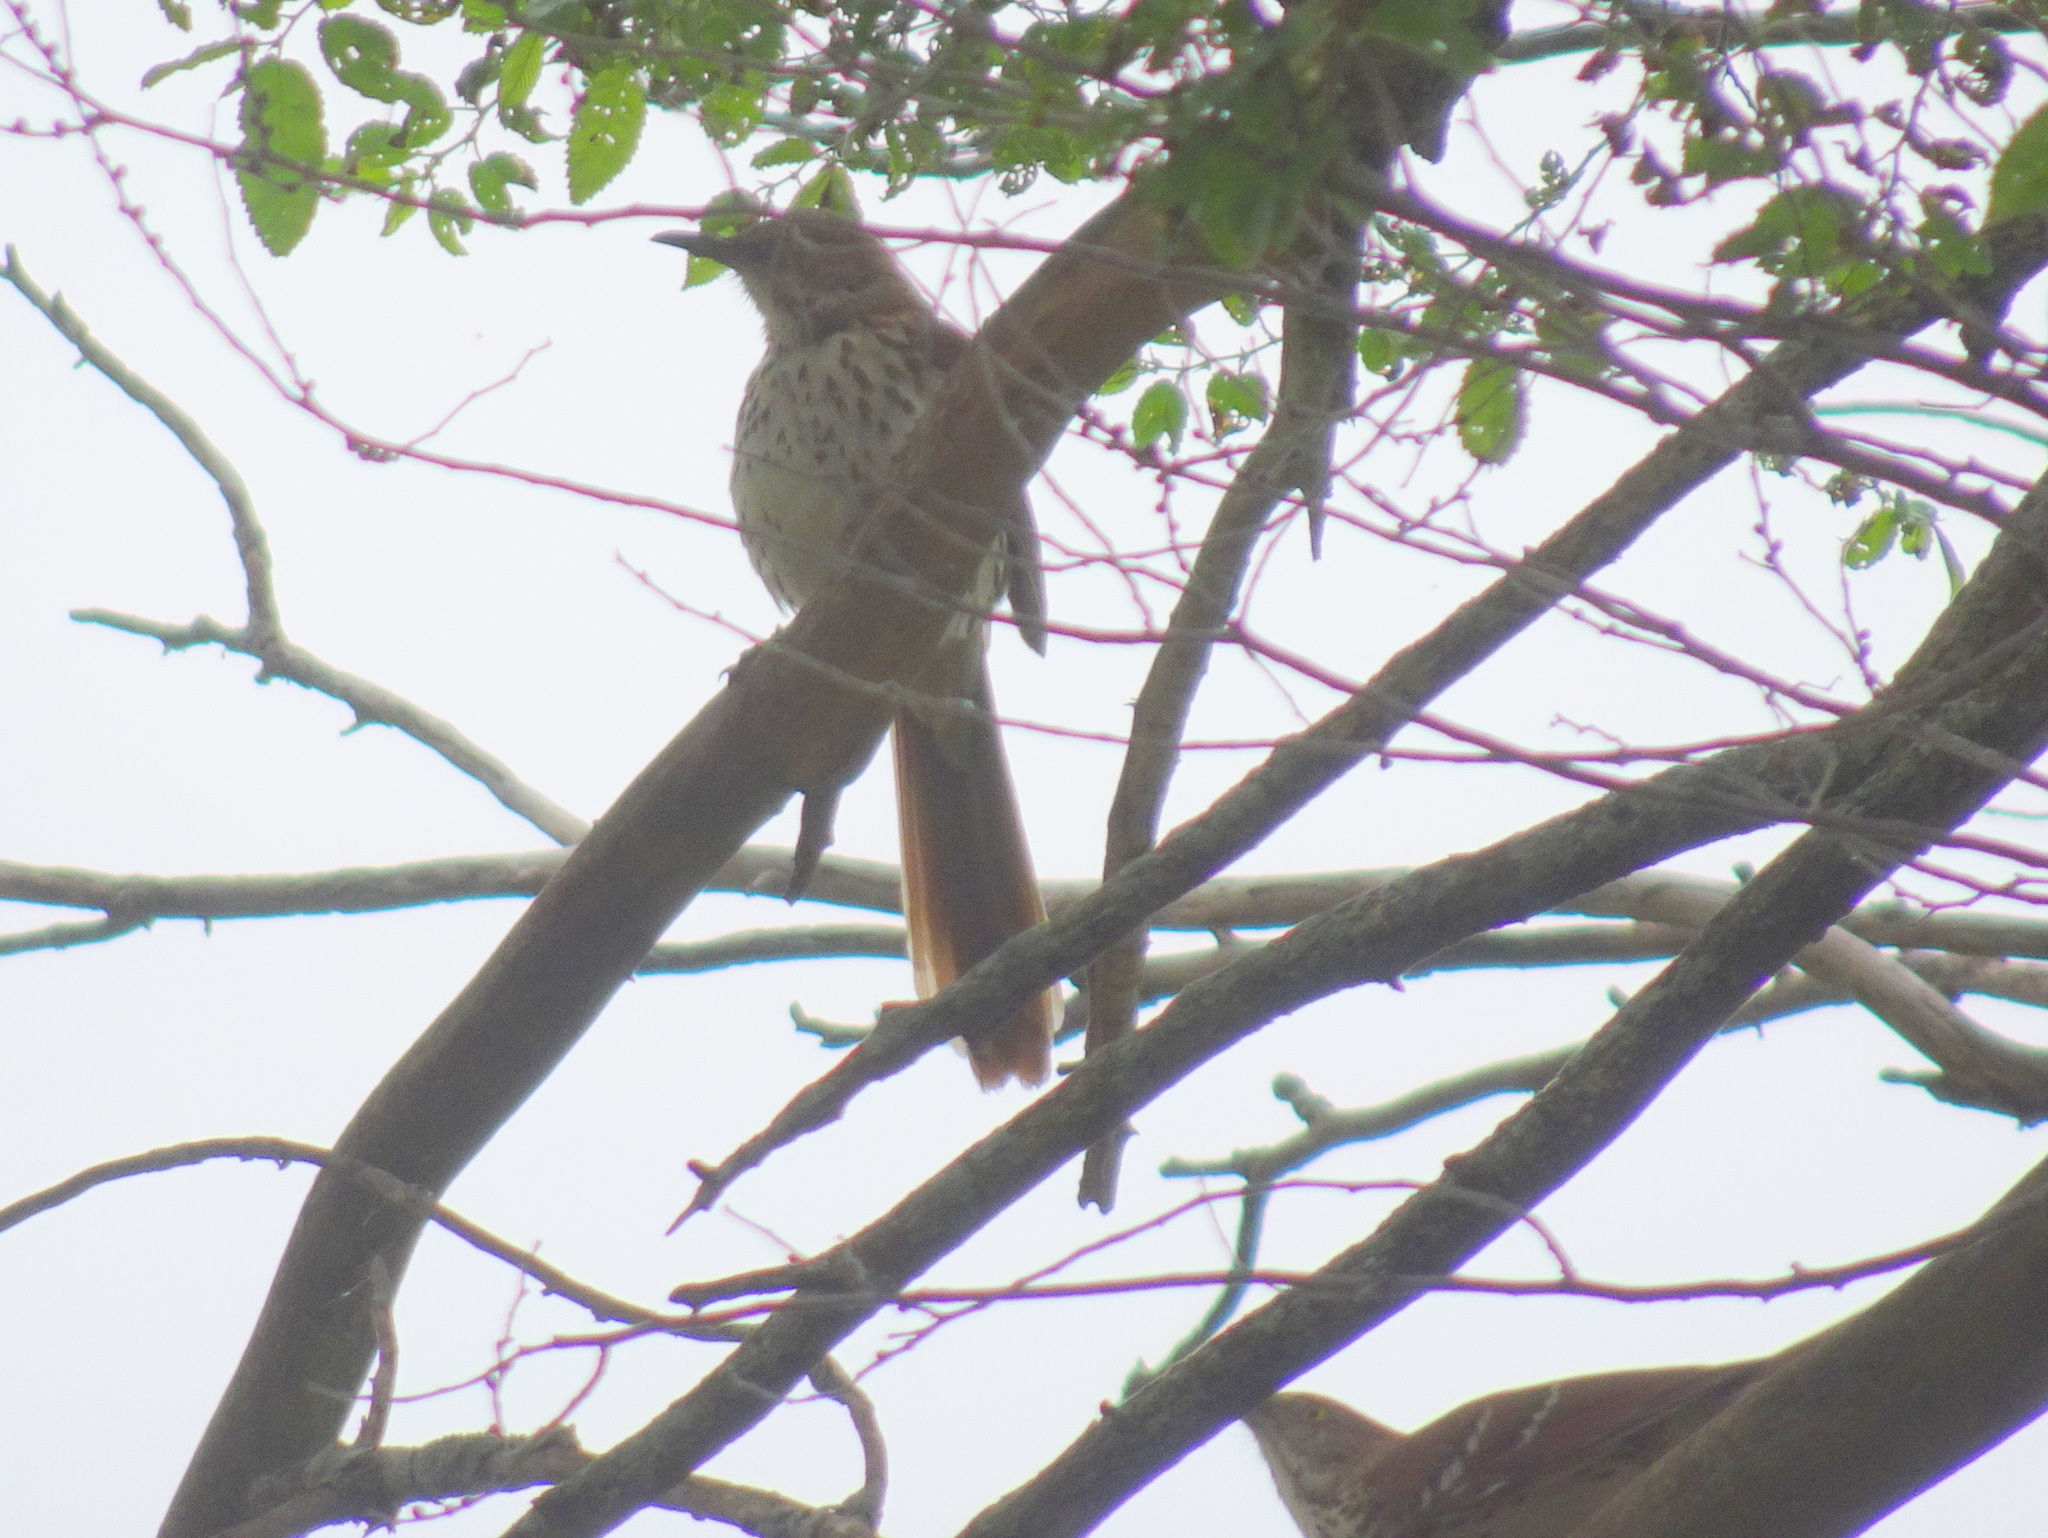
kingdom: Animalia
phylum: Chordata
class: Aves
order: Passeriformes
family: Mimidae
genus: Toxostoma
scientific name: Toxostoma rufum
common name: Brown thrasher
